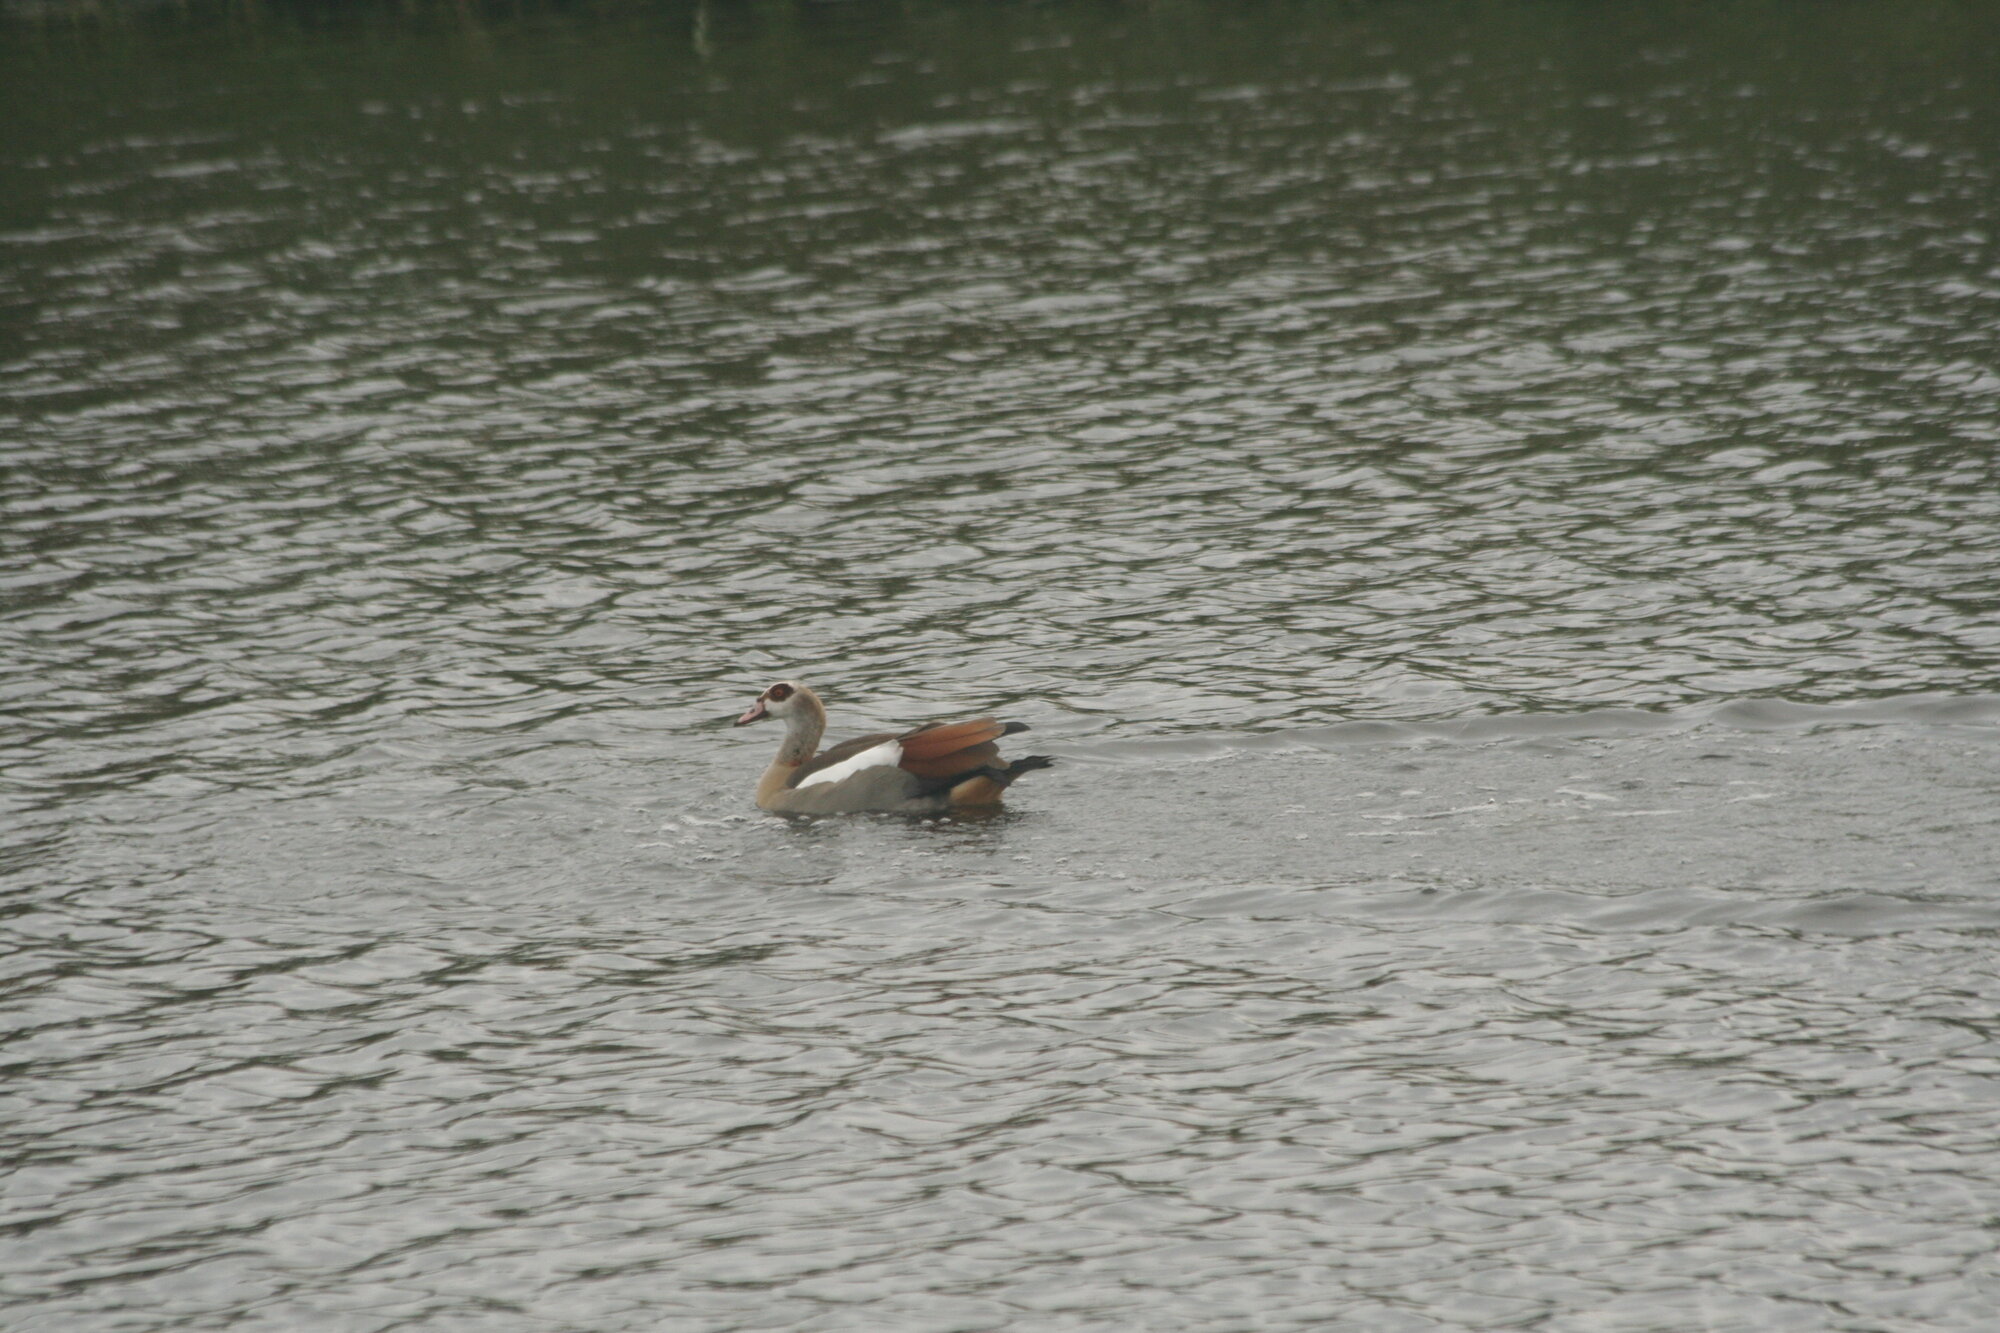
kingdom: Animalia
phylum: Chordata
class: Aves
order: Anseriformes
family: Anatidae
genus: Alopochen
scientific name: Alopochen aegyptiaca
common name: Egyptian goose
